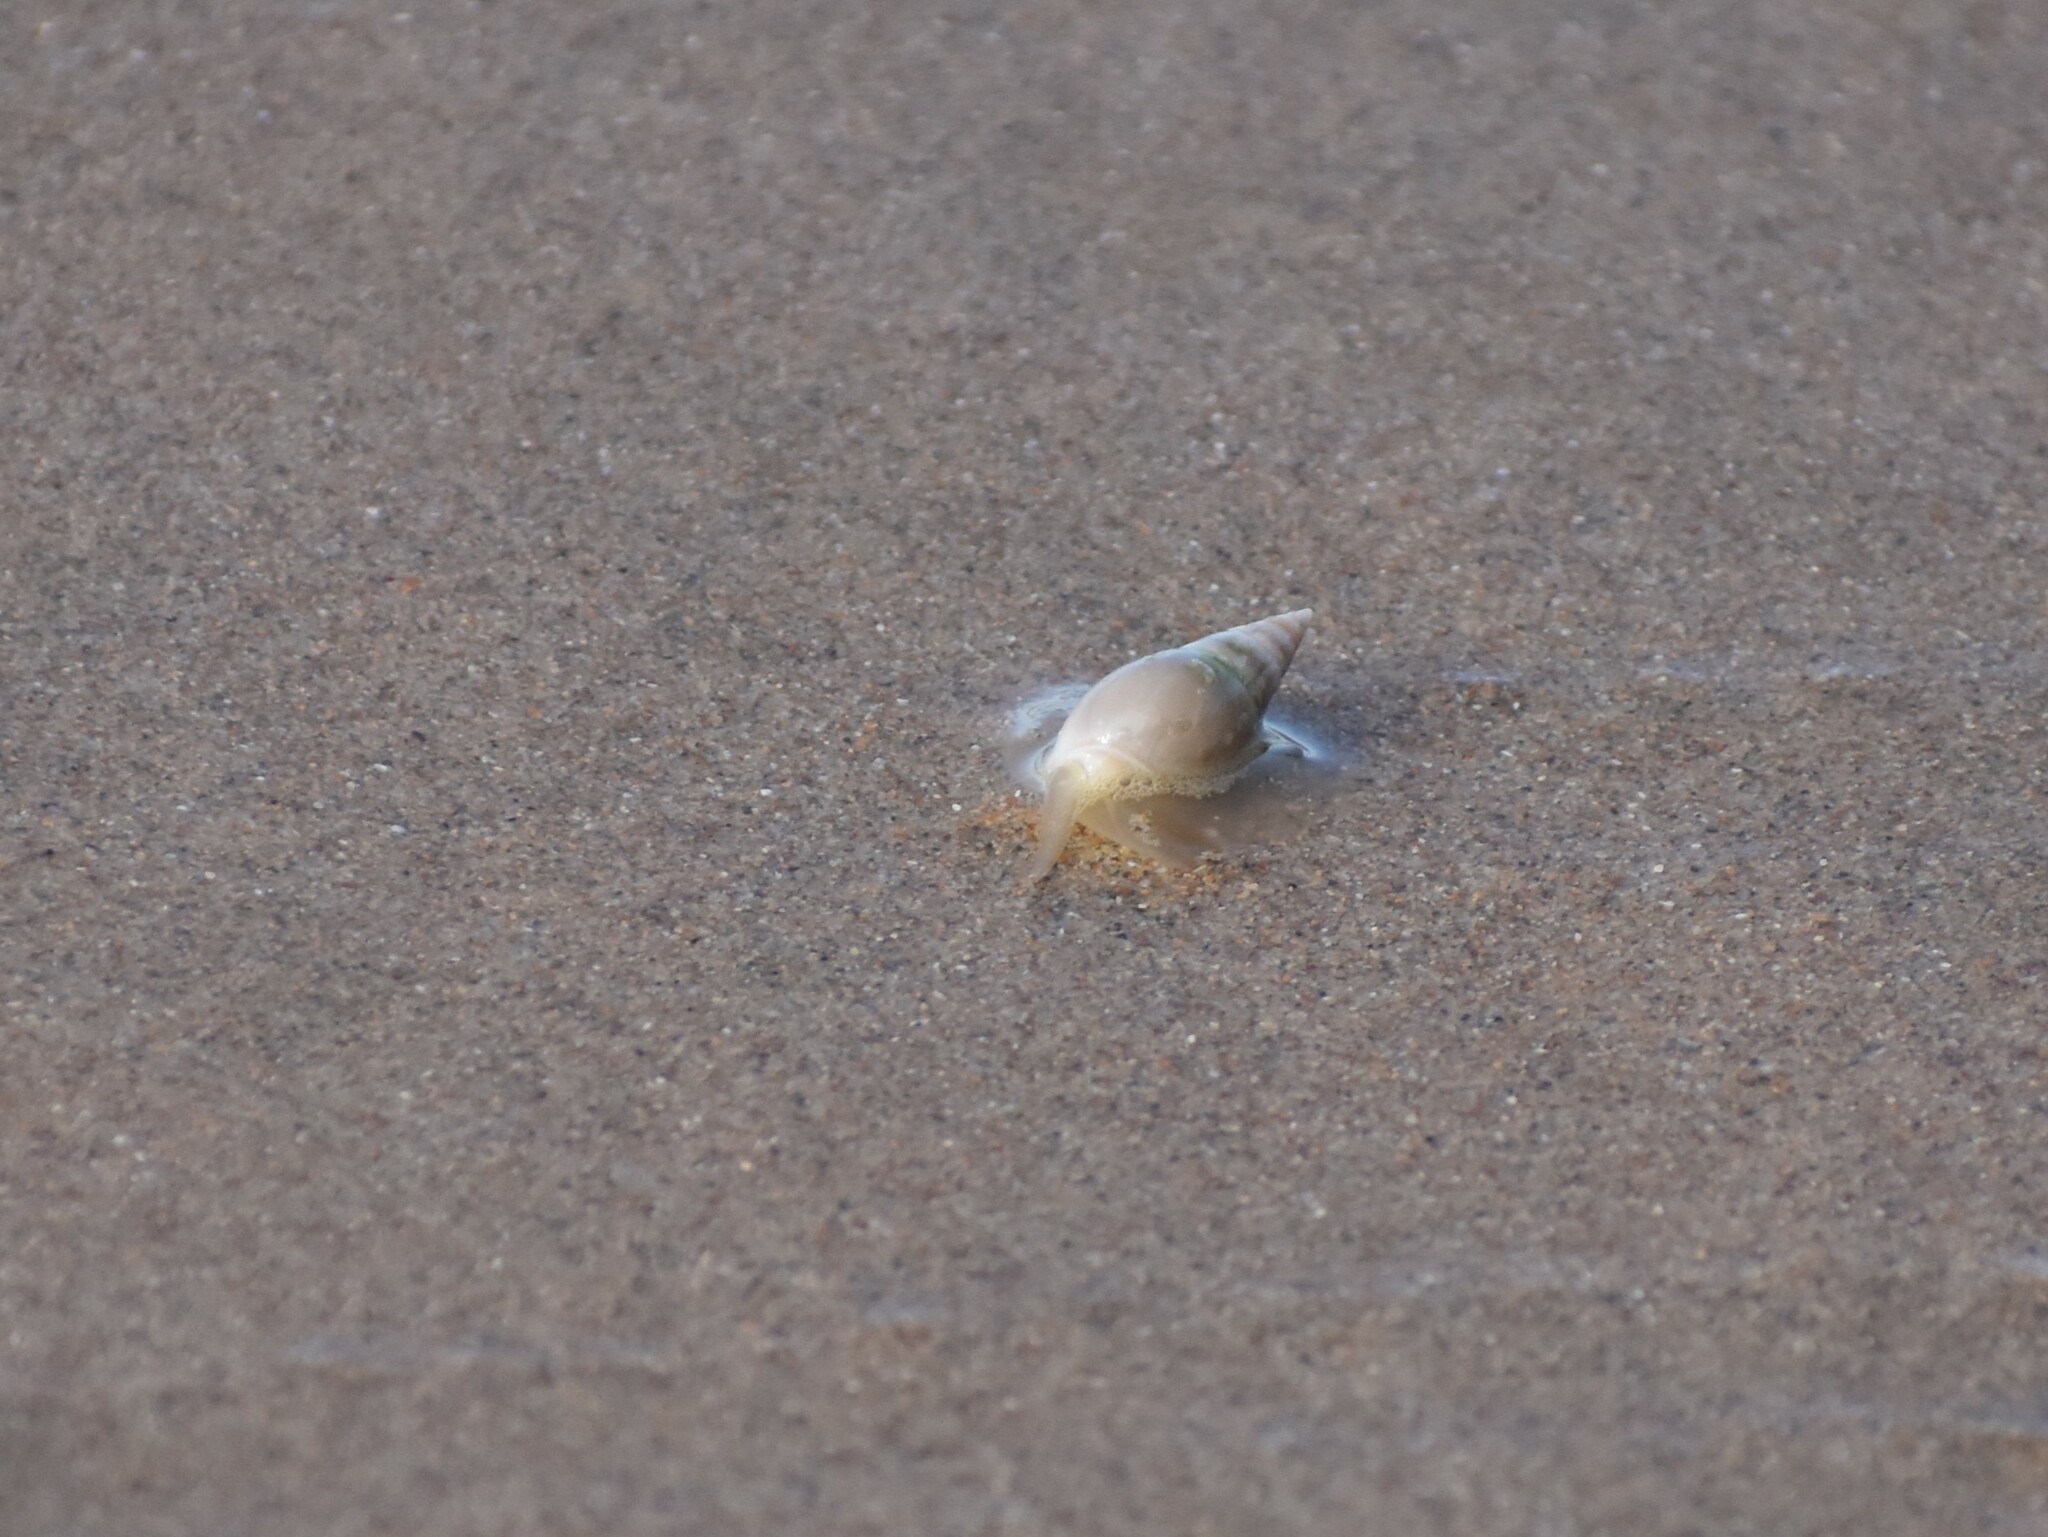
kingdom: Animalia
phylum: Mollusca
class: Gastropoda
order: Neogastropoda
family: Nassariidae
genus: Bullia
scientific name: Bullia rhodostoma
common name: Smooth plough shell
